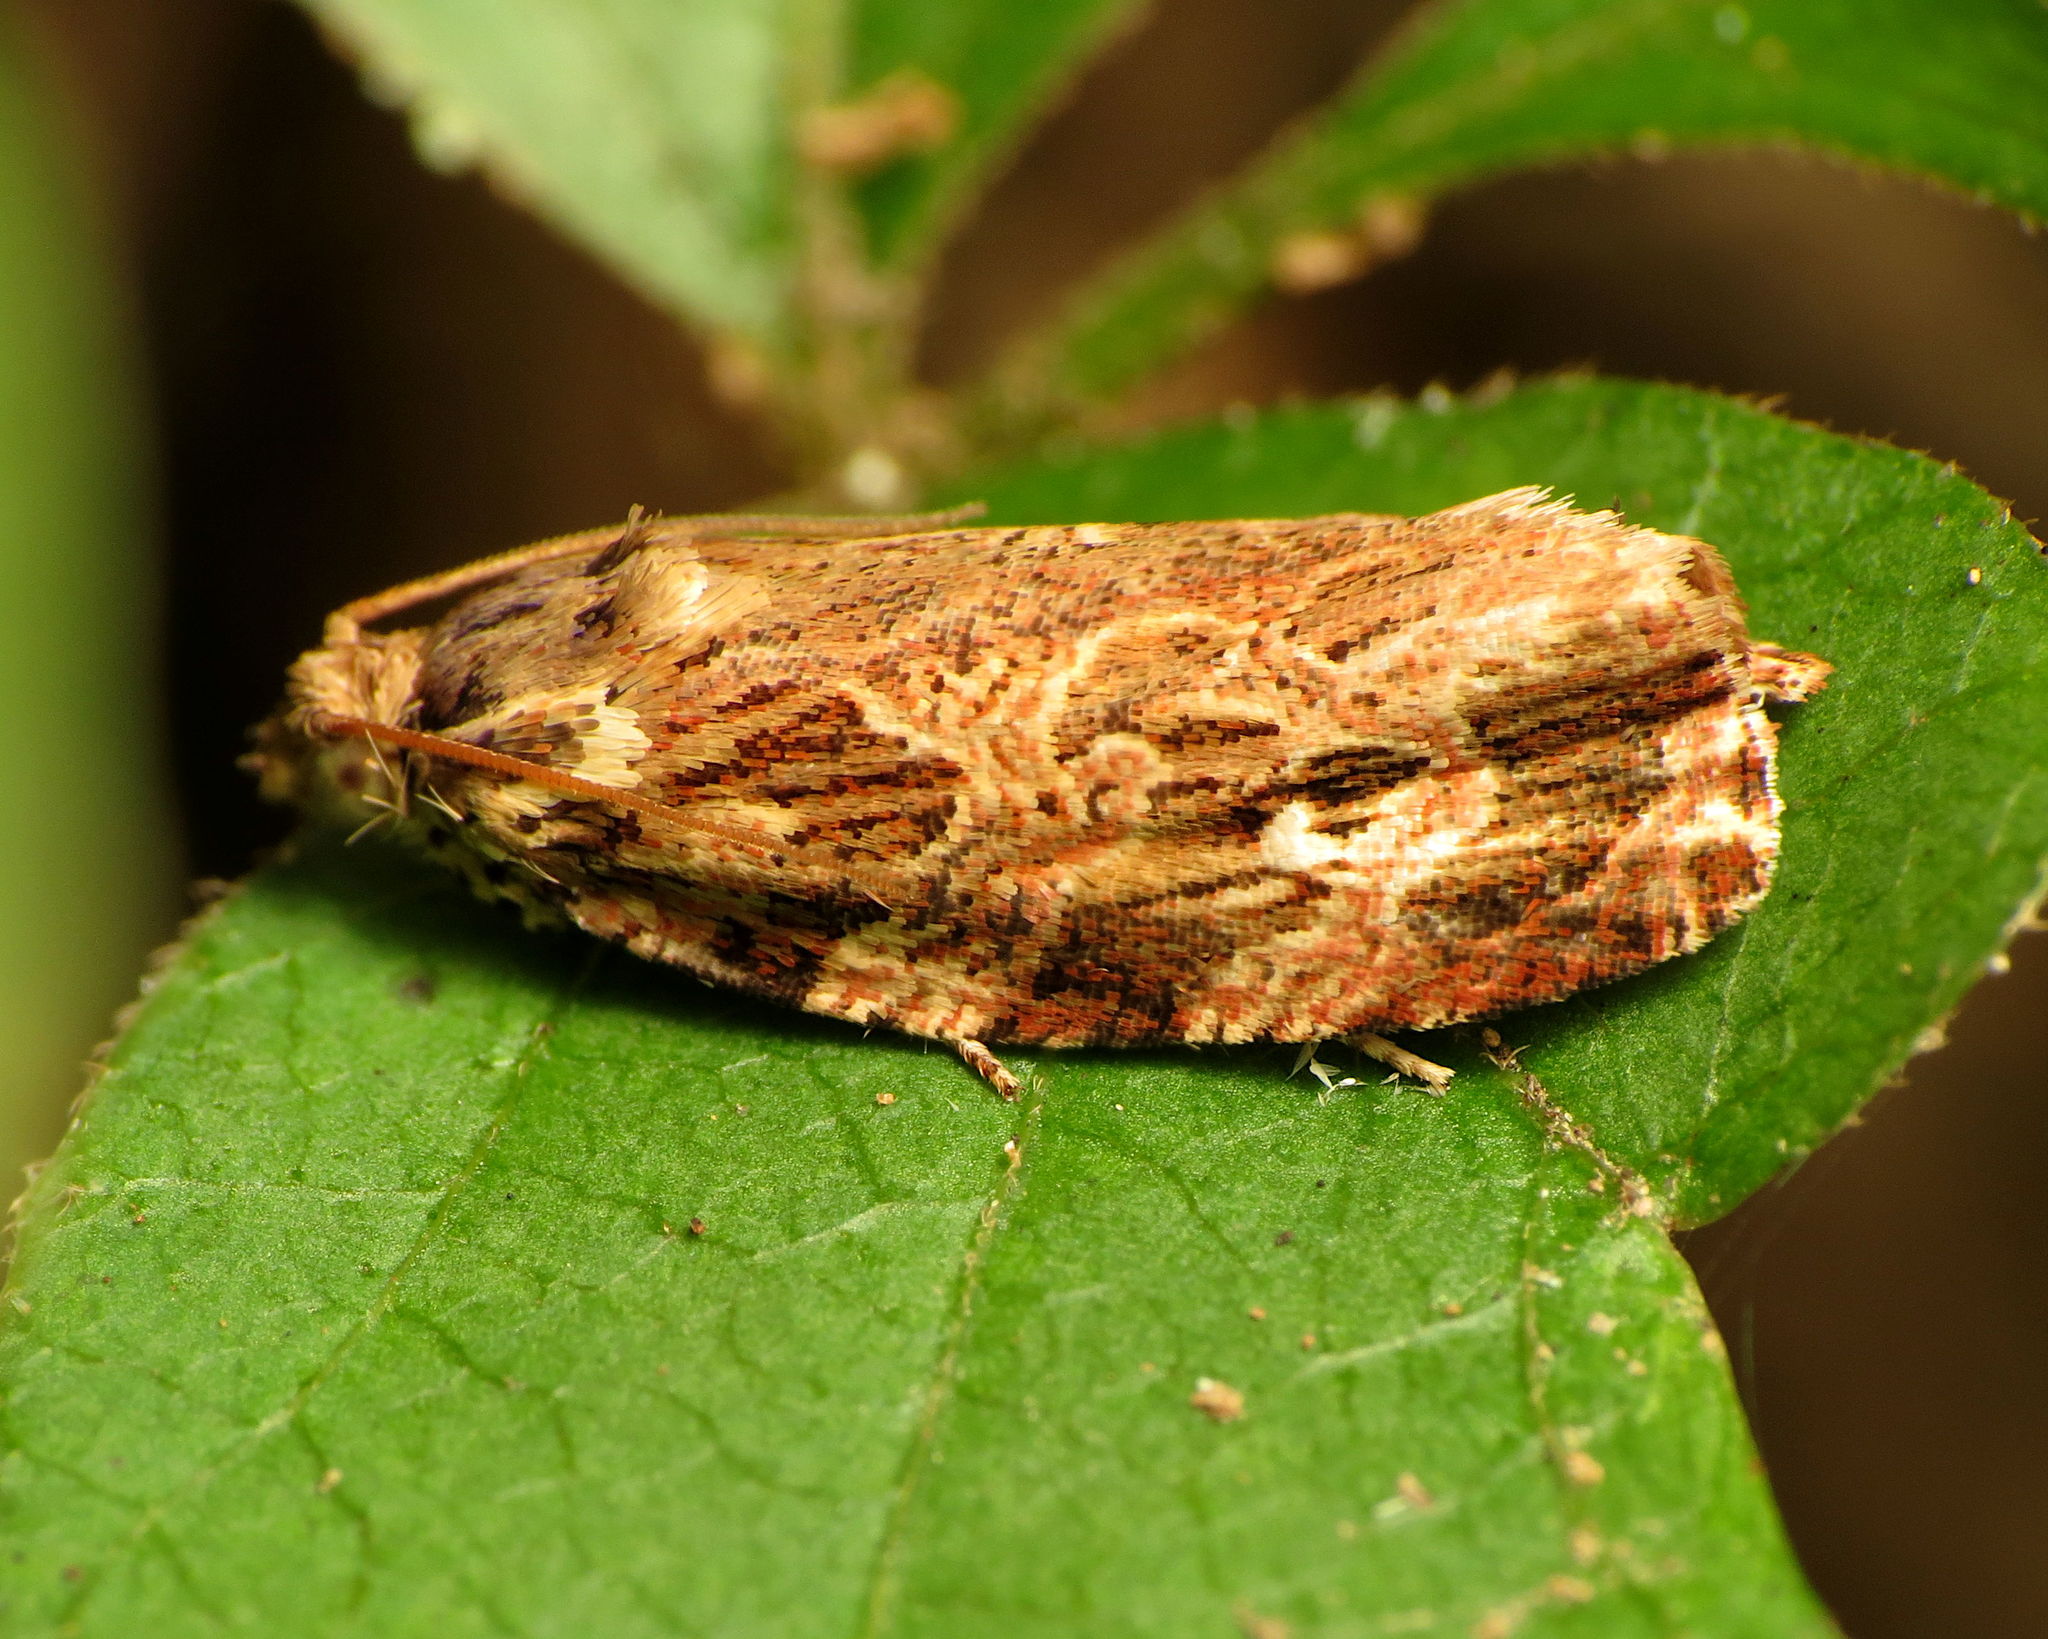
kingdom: Animalia
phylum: Arthropoda
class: Insecta
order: Lepidoptera
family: Tortricidae
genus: Phaecasiophora
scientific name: Phaecasiophora confixana
